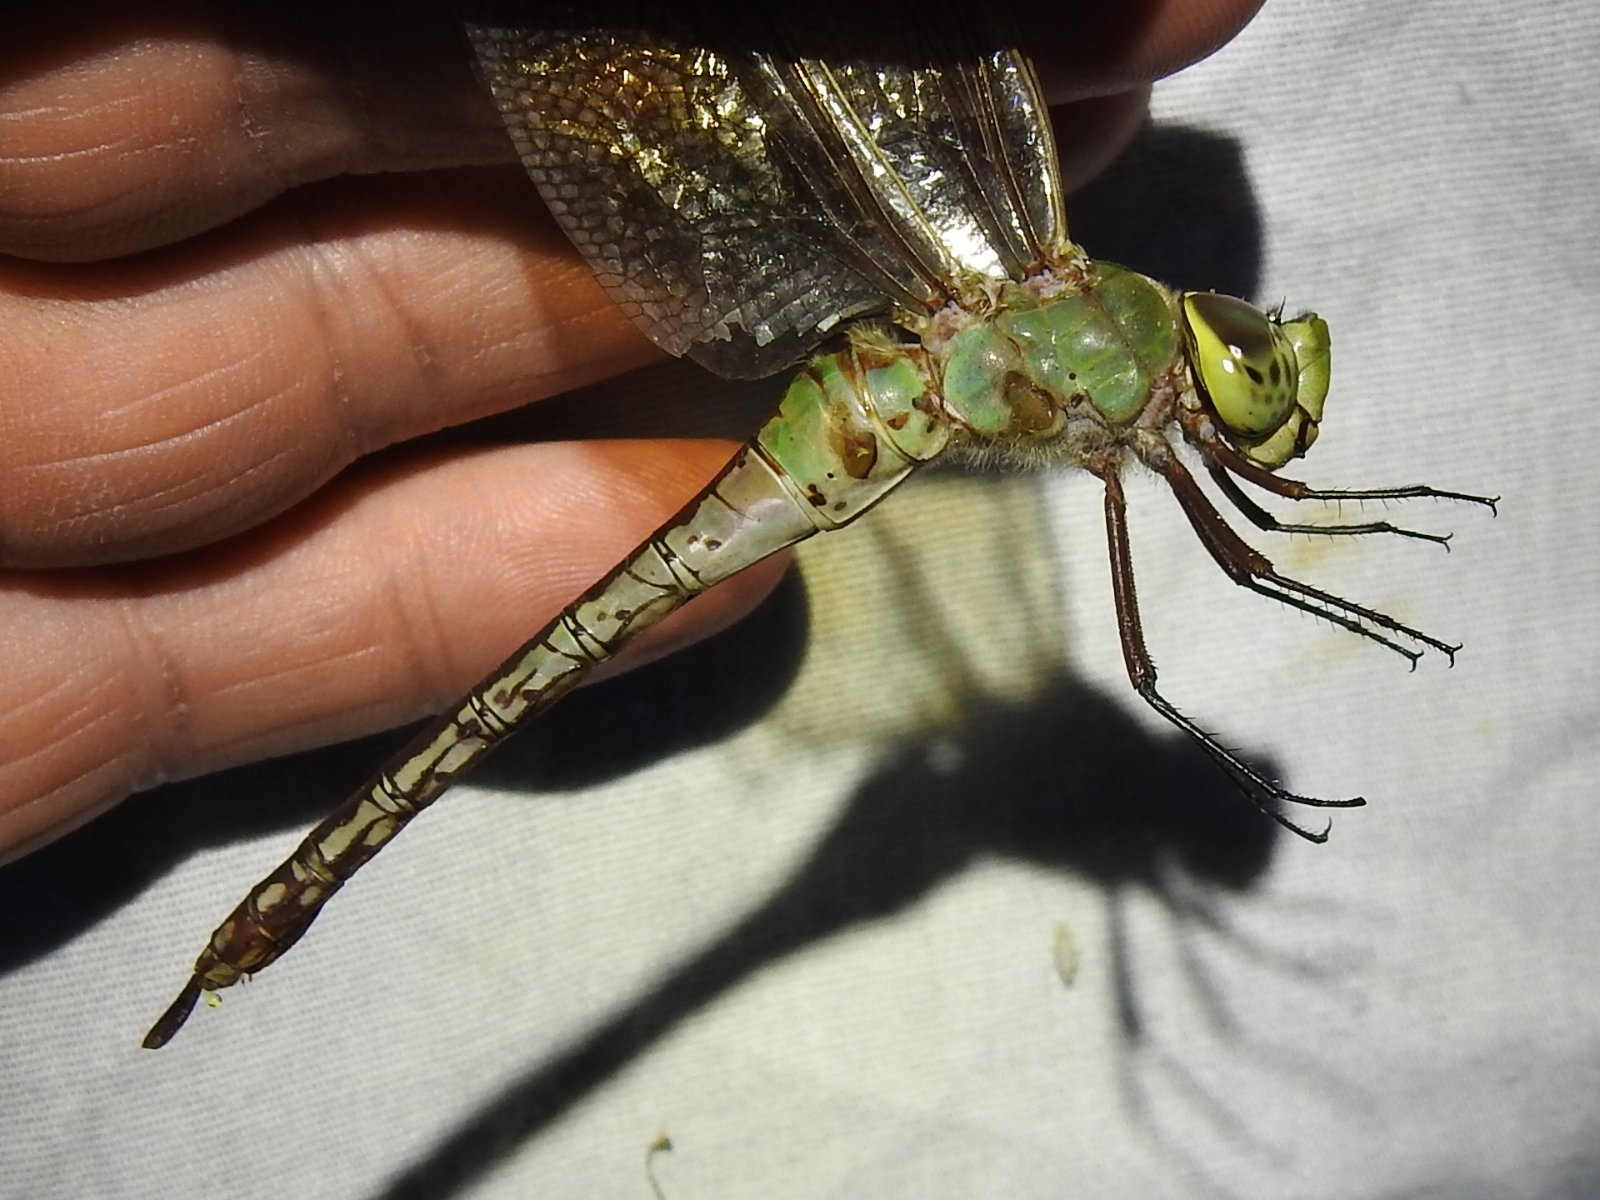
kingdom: Animalia
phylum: Arthropoda
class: Insecta
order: Odonata
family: Aeshnidae
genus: Anax
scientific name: Anax junius
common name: Common green darner
